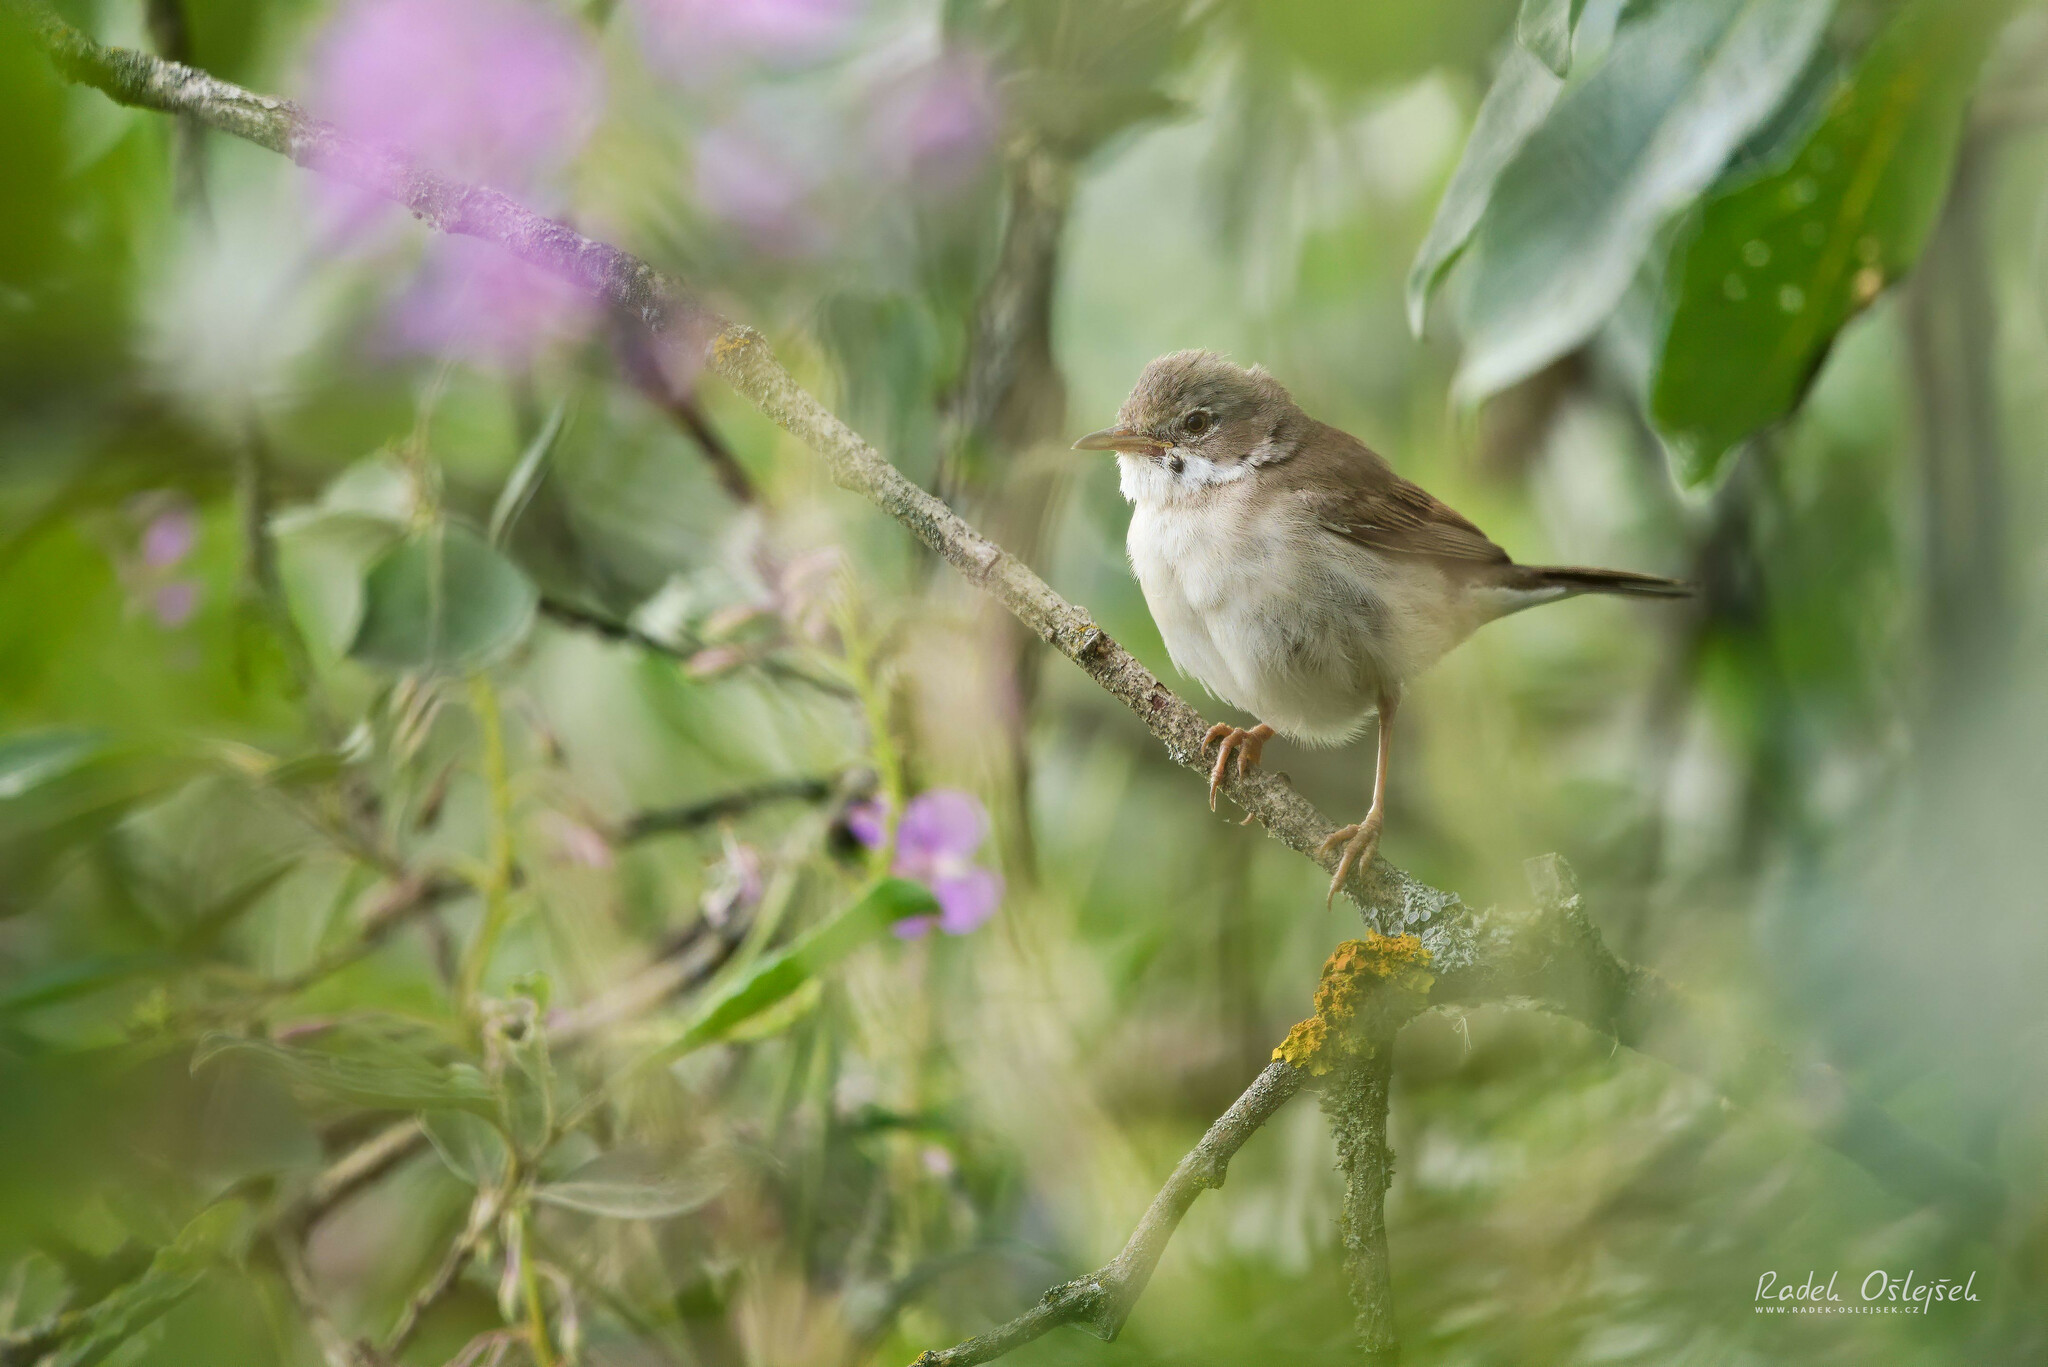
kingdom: Animalia
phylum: Chordata
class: Aves
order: Passeriformes
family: Sylviidae
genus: Sylvia
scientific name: Sylvia communis
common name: Common whitethroat
